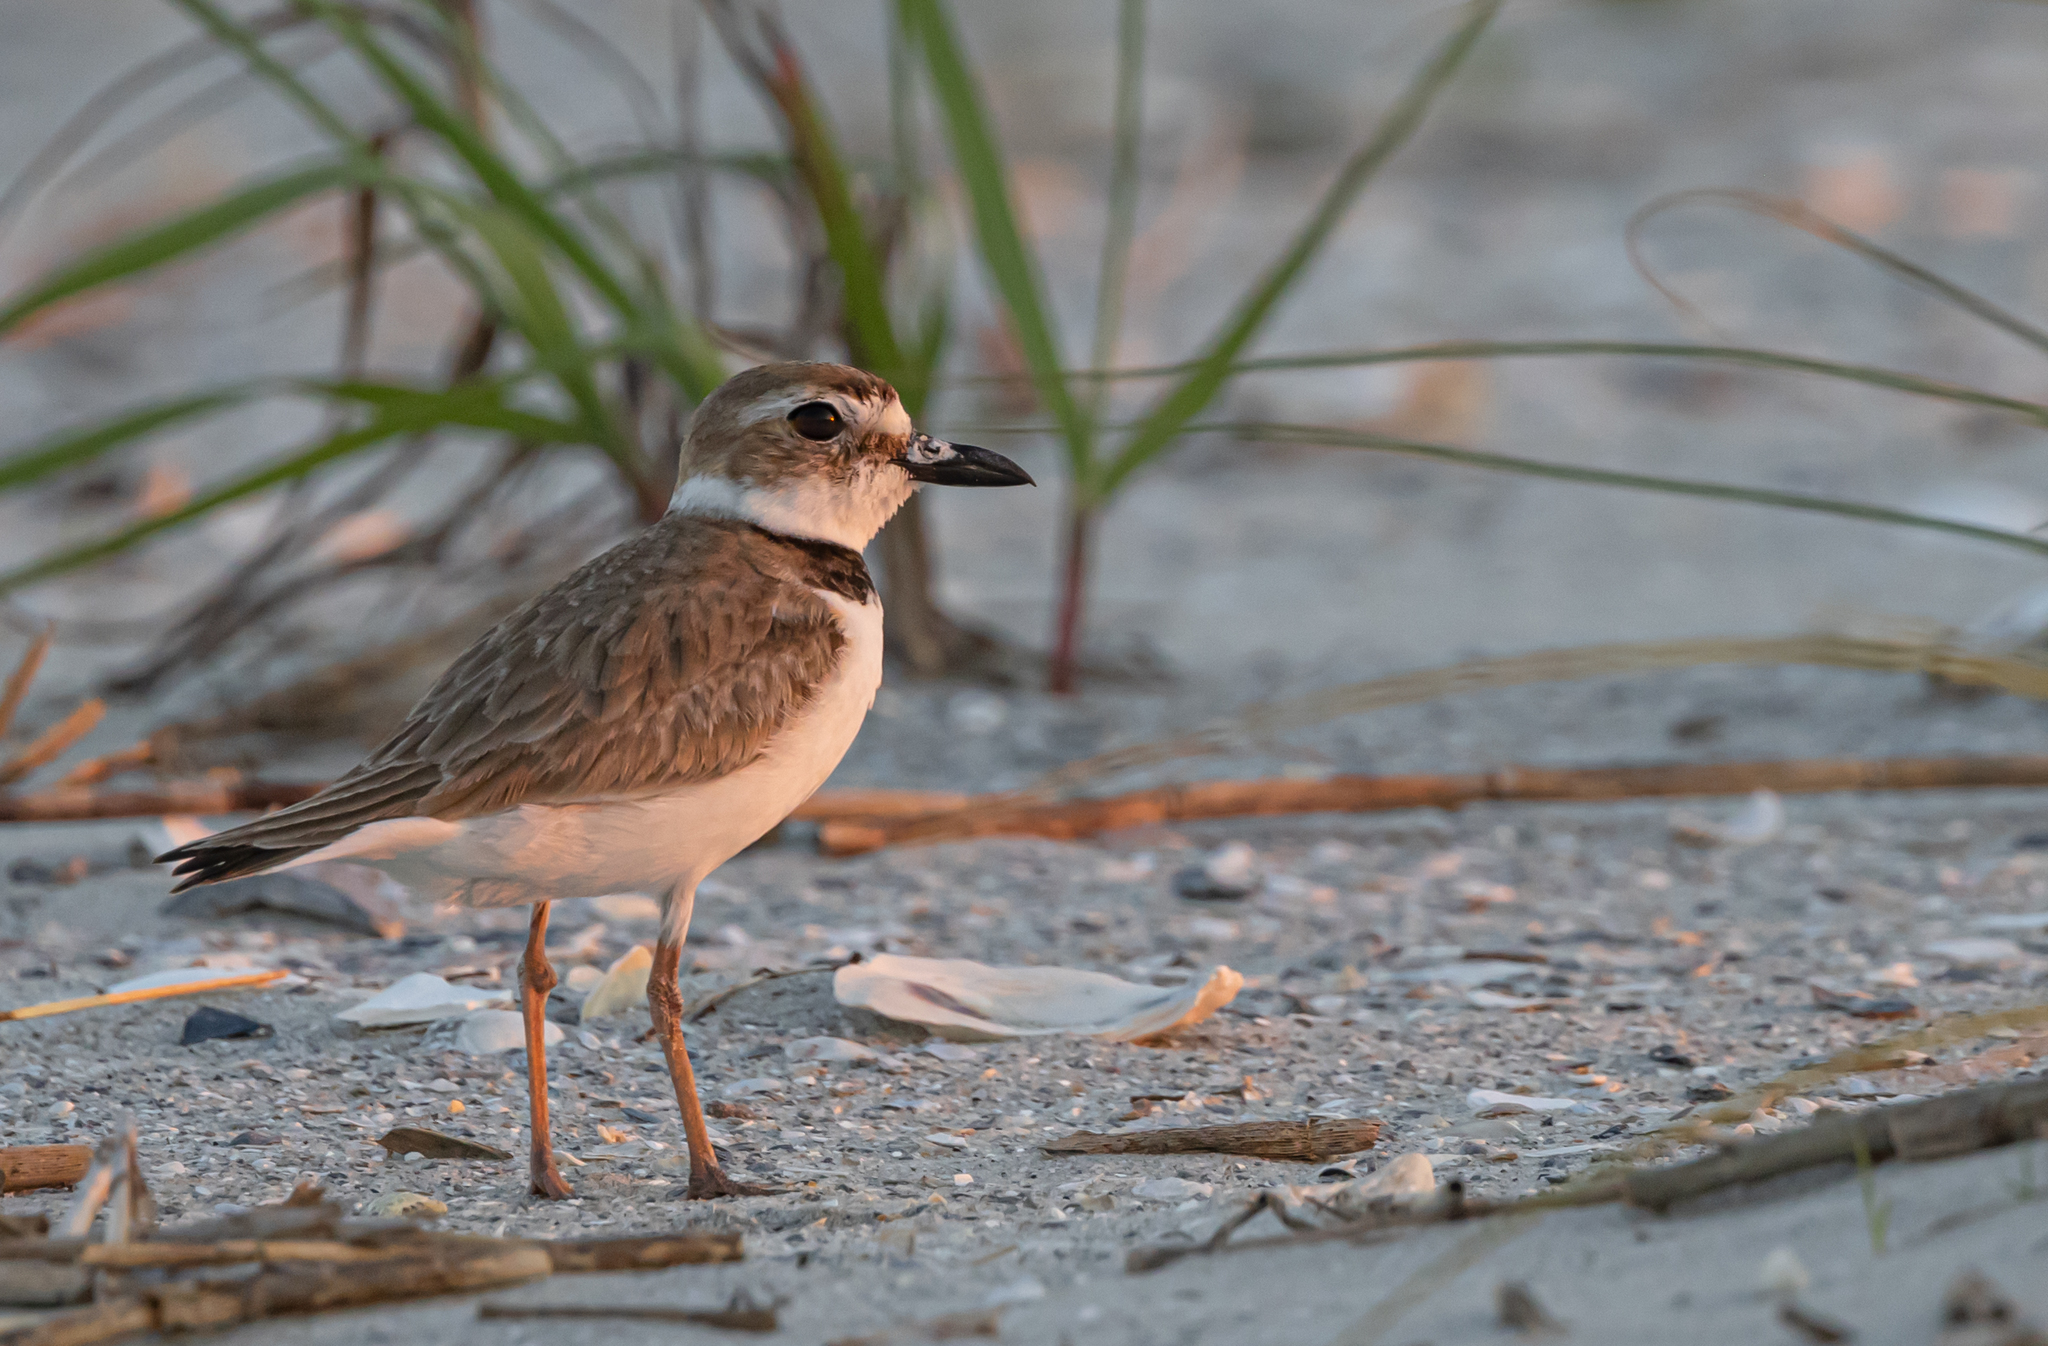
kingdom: Animalia
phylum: Chordata
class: Aves
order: Charadriiformes
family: Charadriidae
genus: Anarhynchus
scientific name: Anarhynchus
